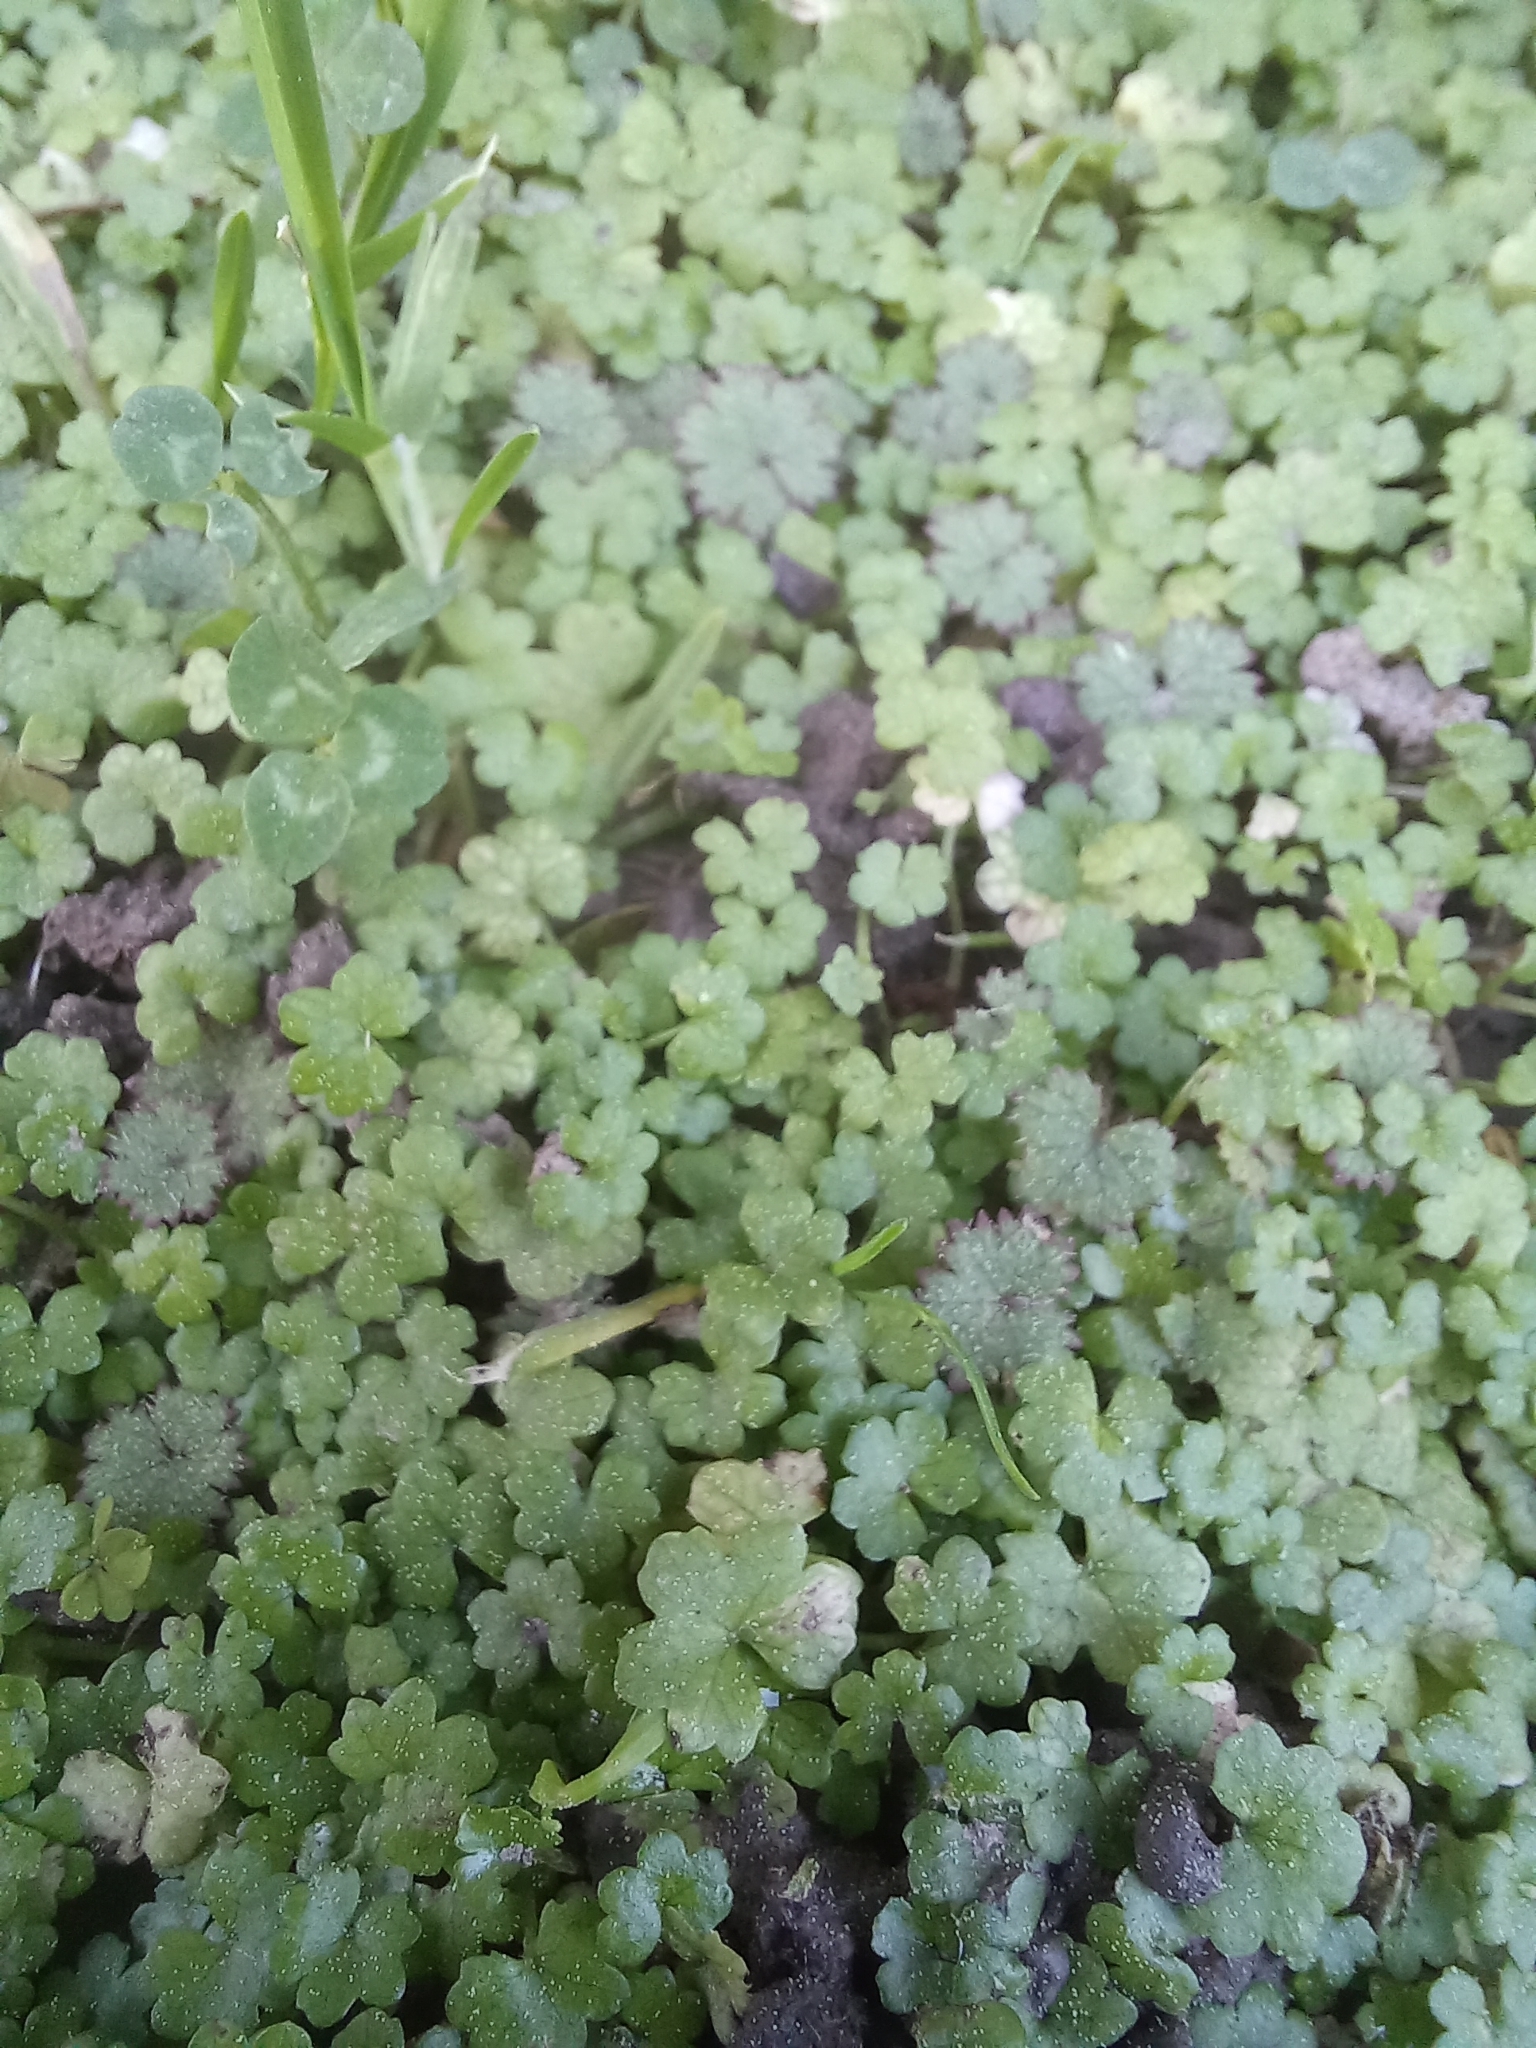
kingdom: Plantae
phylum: Tracheophyta
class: Magnoliopsida
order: Apiales
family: Araliaceae
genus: Hydrocotyle
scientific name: Hydrocotyle heteromeria
